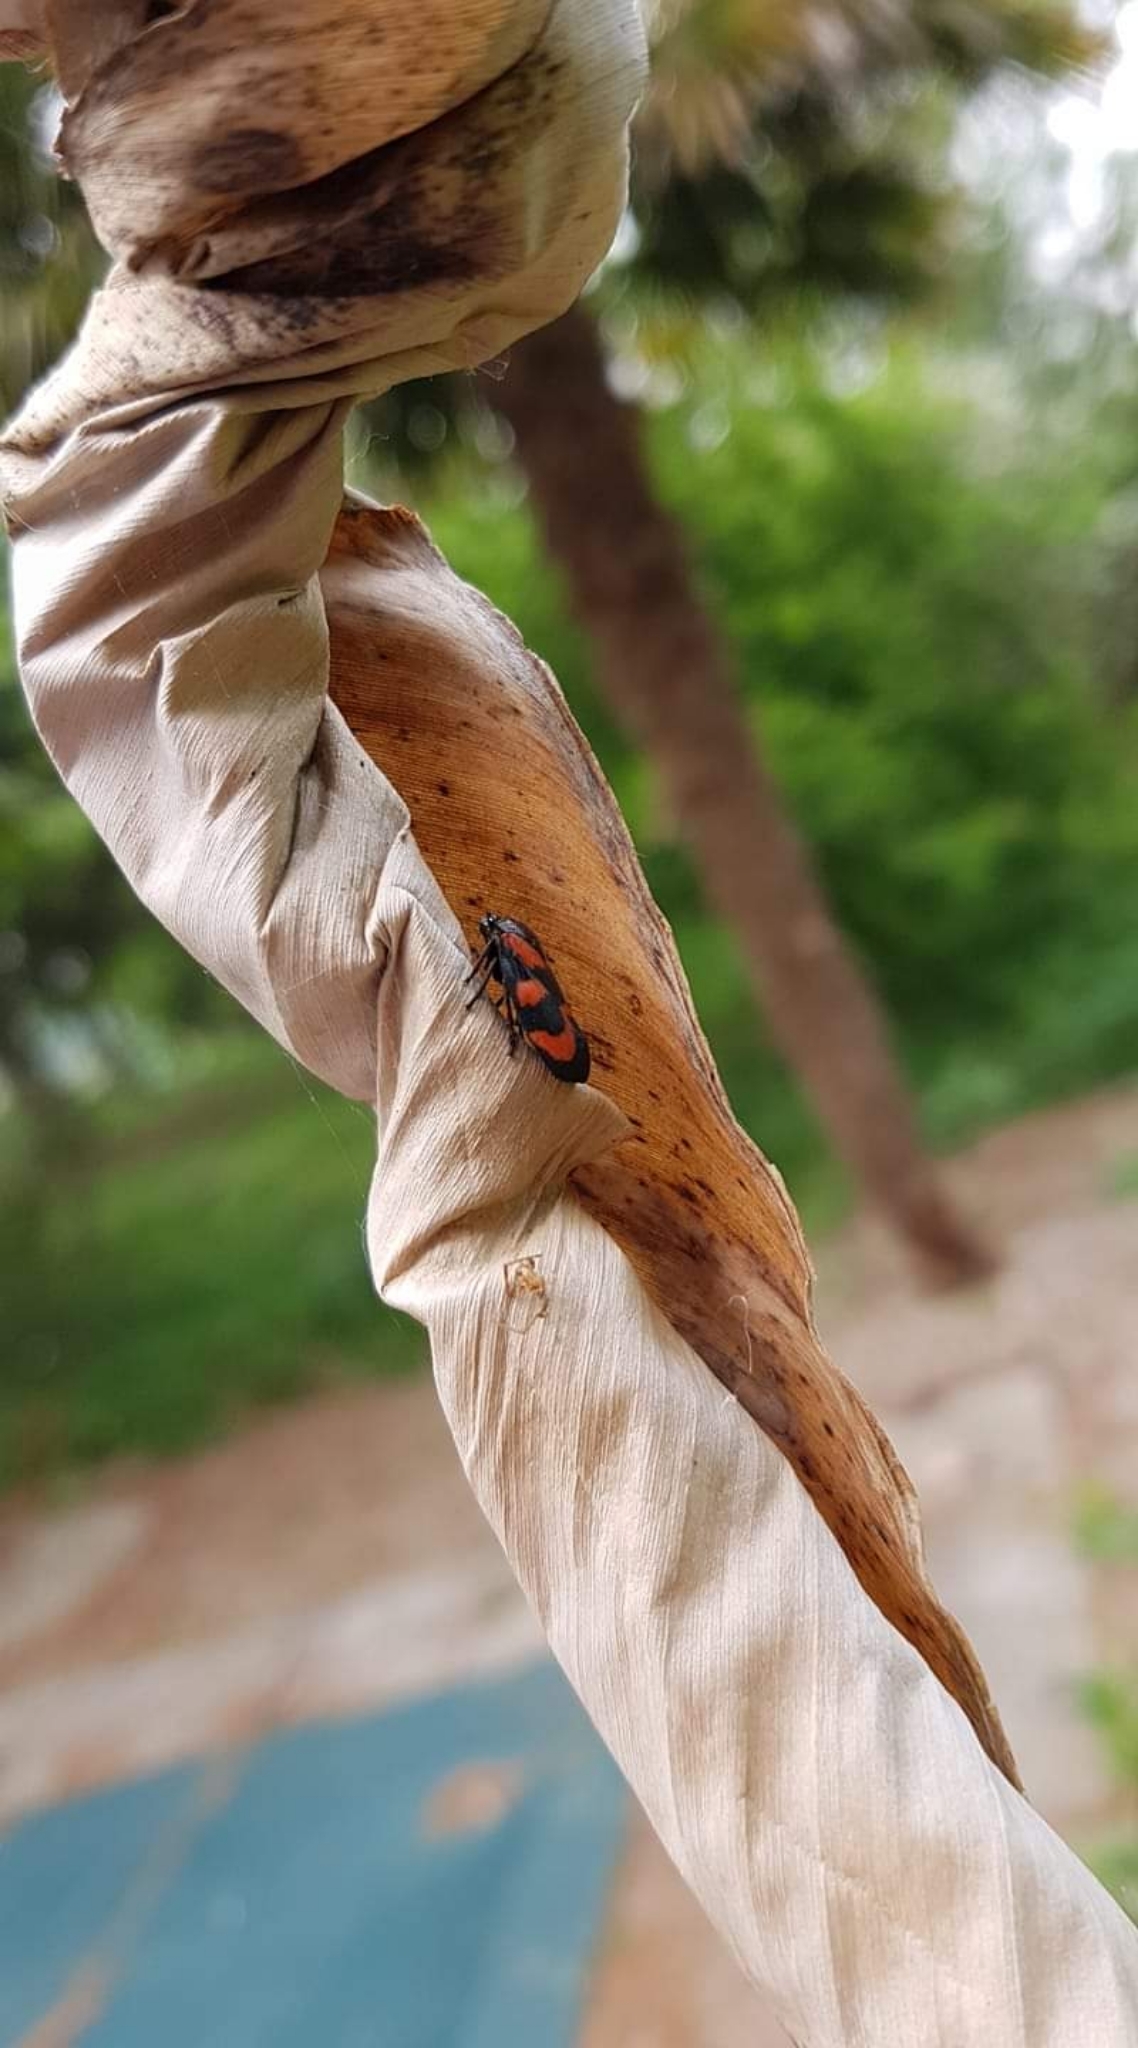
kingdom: Animalia
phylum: Arthropoda
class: Insecta
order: Hemiptera
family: Cercopidae
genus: Cercopis
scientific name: Cercopis vulnerata
